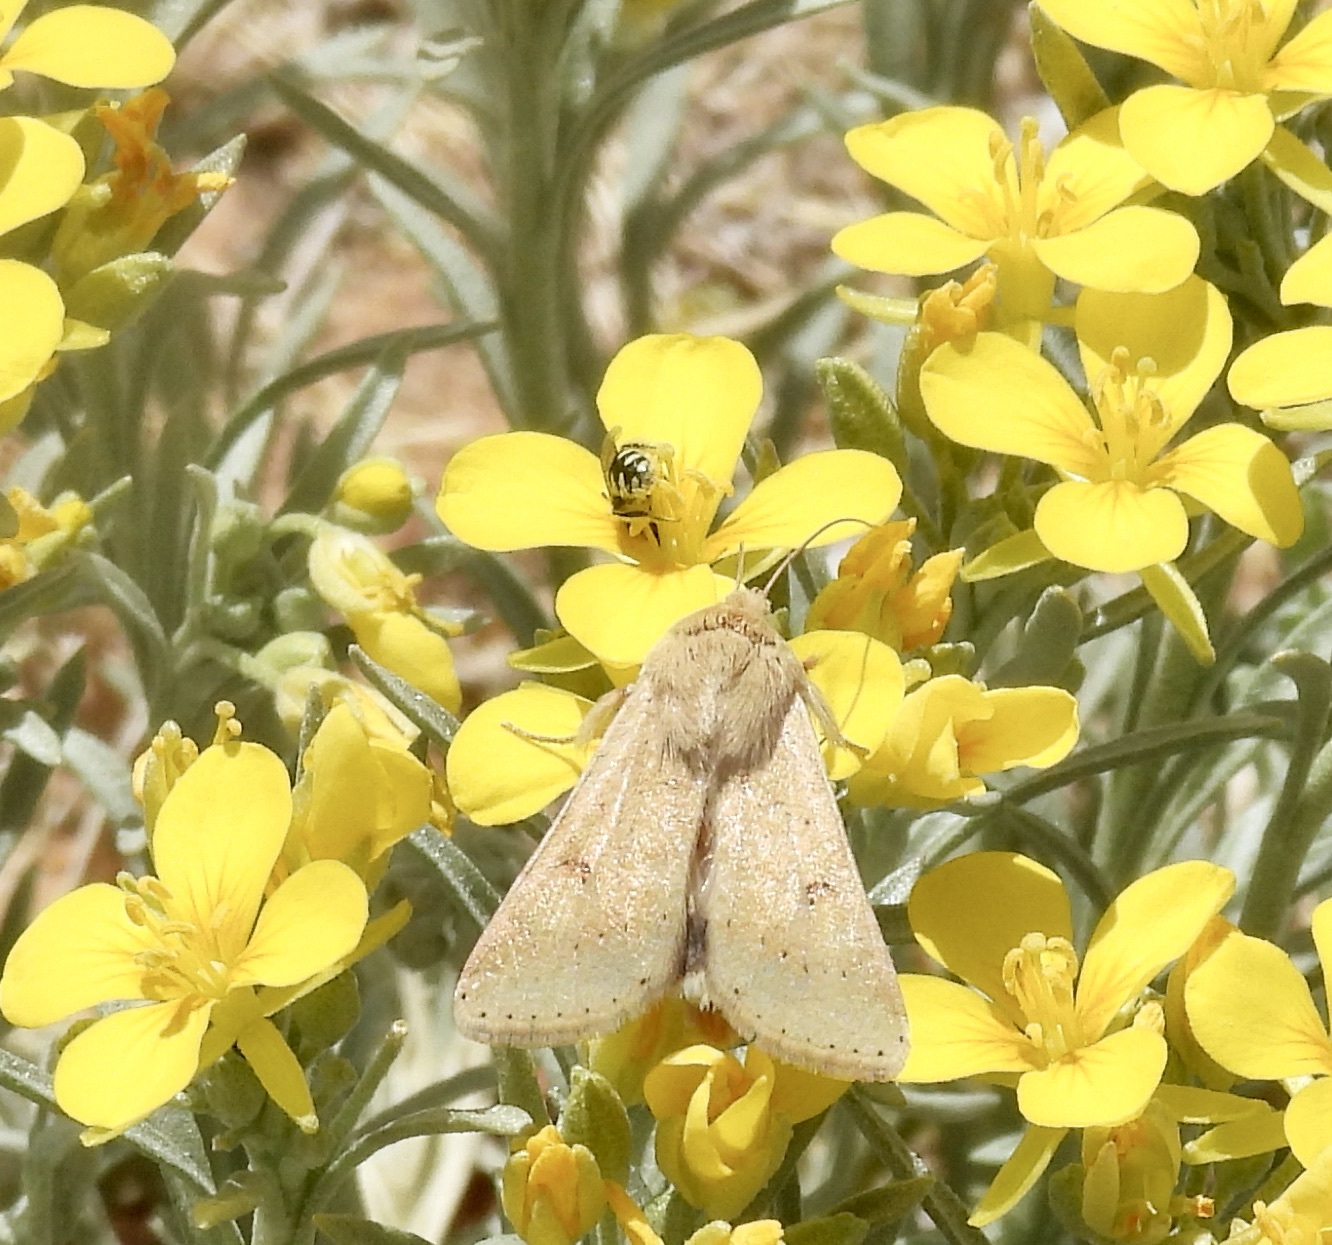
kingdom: Animalia
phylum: Arthropoda
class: Insecta
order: Hymenoptera
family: Andrenidae
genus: Perdita
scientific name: Perdita
